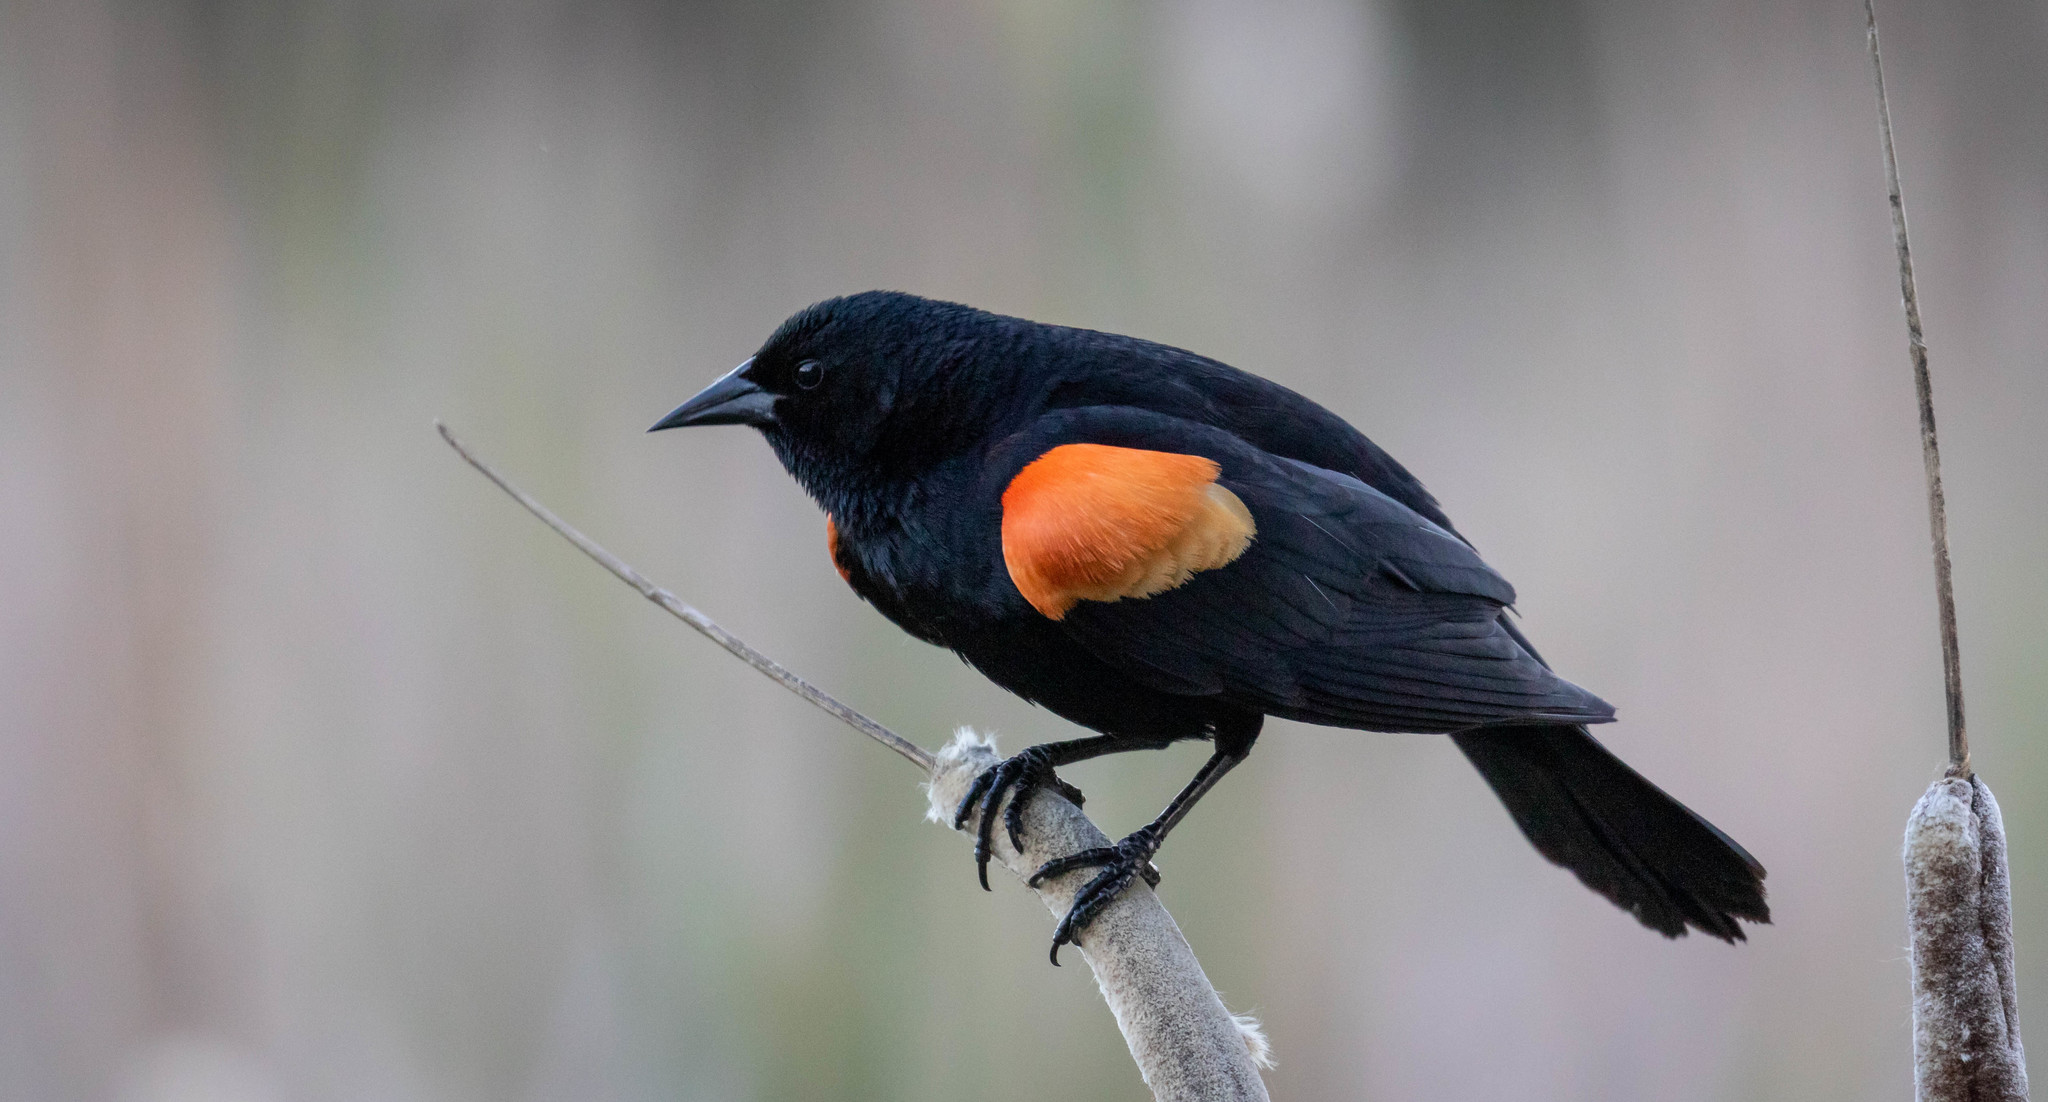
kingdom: Animalia
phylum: Chordata
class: Aves
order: Passeriformes
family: Icteridae
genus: Agelaius
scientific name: Agelaius phoeniceus
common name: Red-winged blackbird
